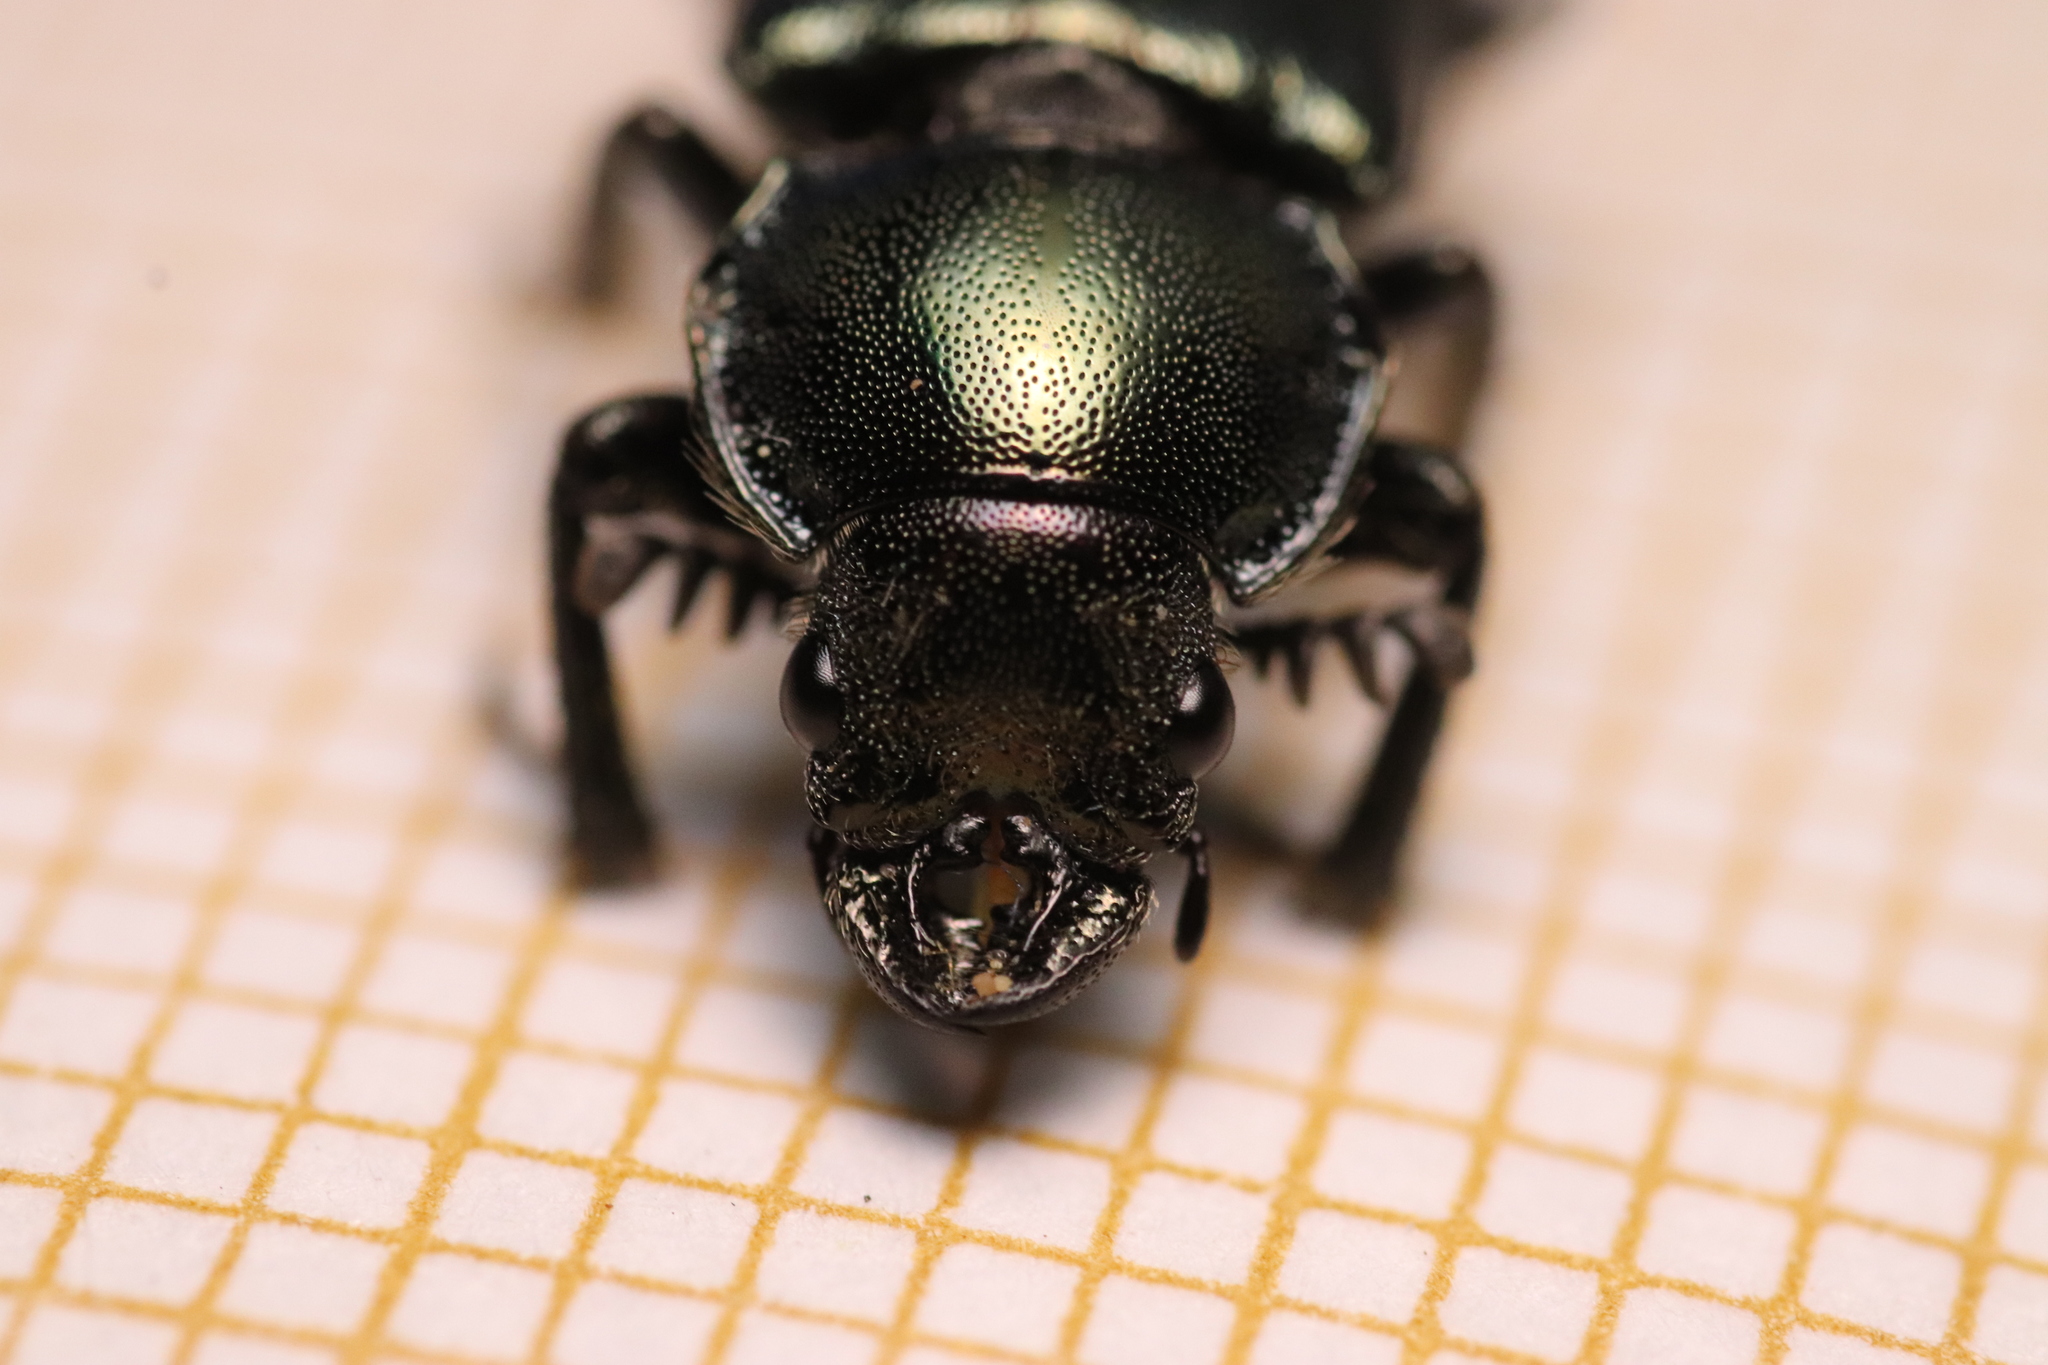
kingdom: Animalia
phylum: Arthropoda
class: Insecta
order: Coleoptera
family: Lucanidae
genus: Platycerus
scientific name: Platycerus caprea
